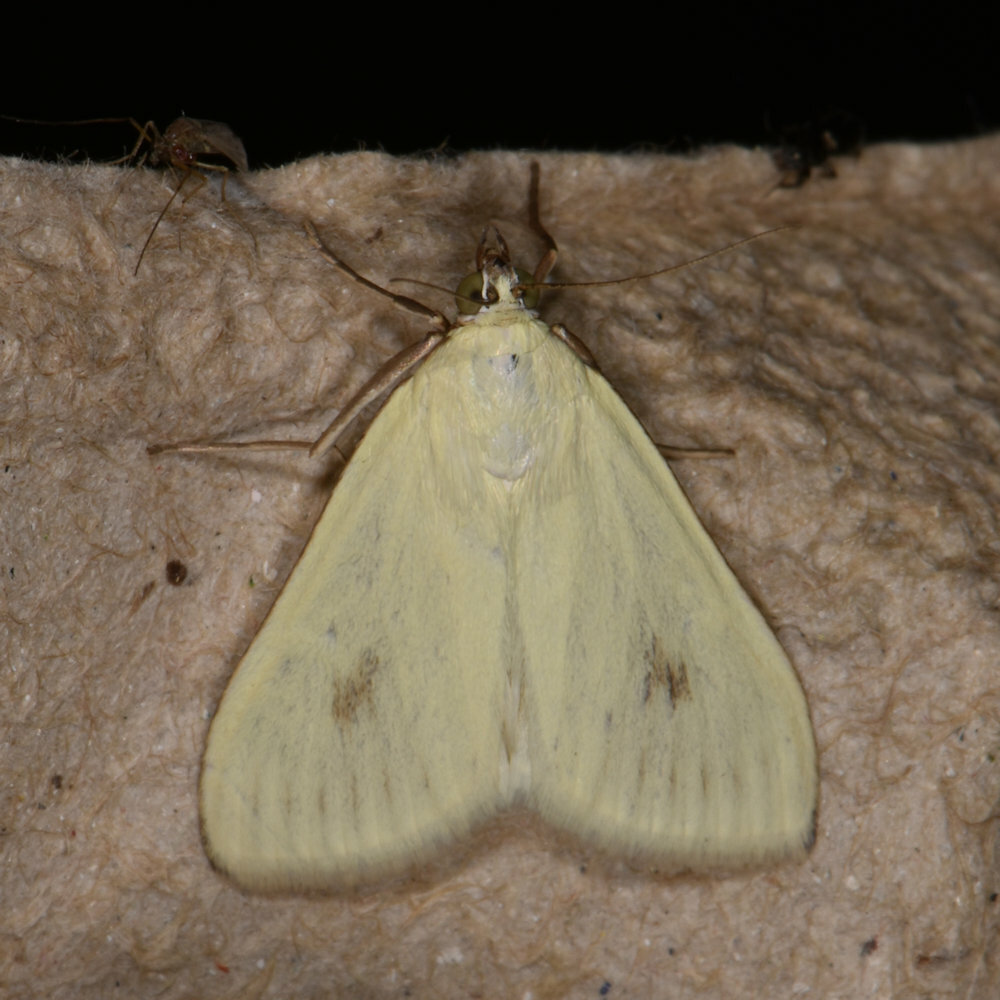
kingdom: Animalia
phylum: Arthropoda
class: Insecta
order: Lepidoptera
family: Crambidae
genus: Sitochroa
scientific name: Sitochroa palealis
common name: Greenish-yellow sitochroa moth
